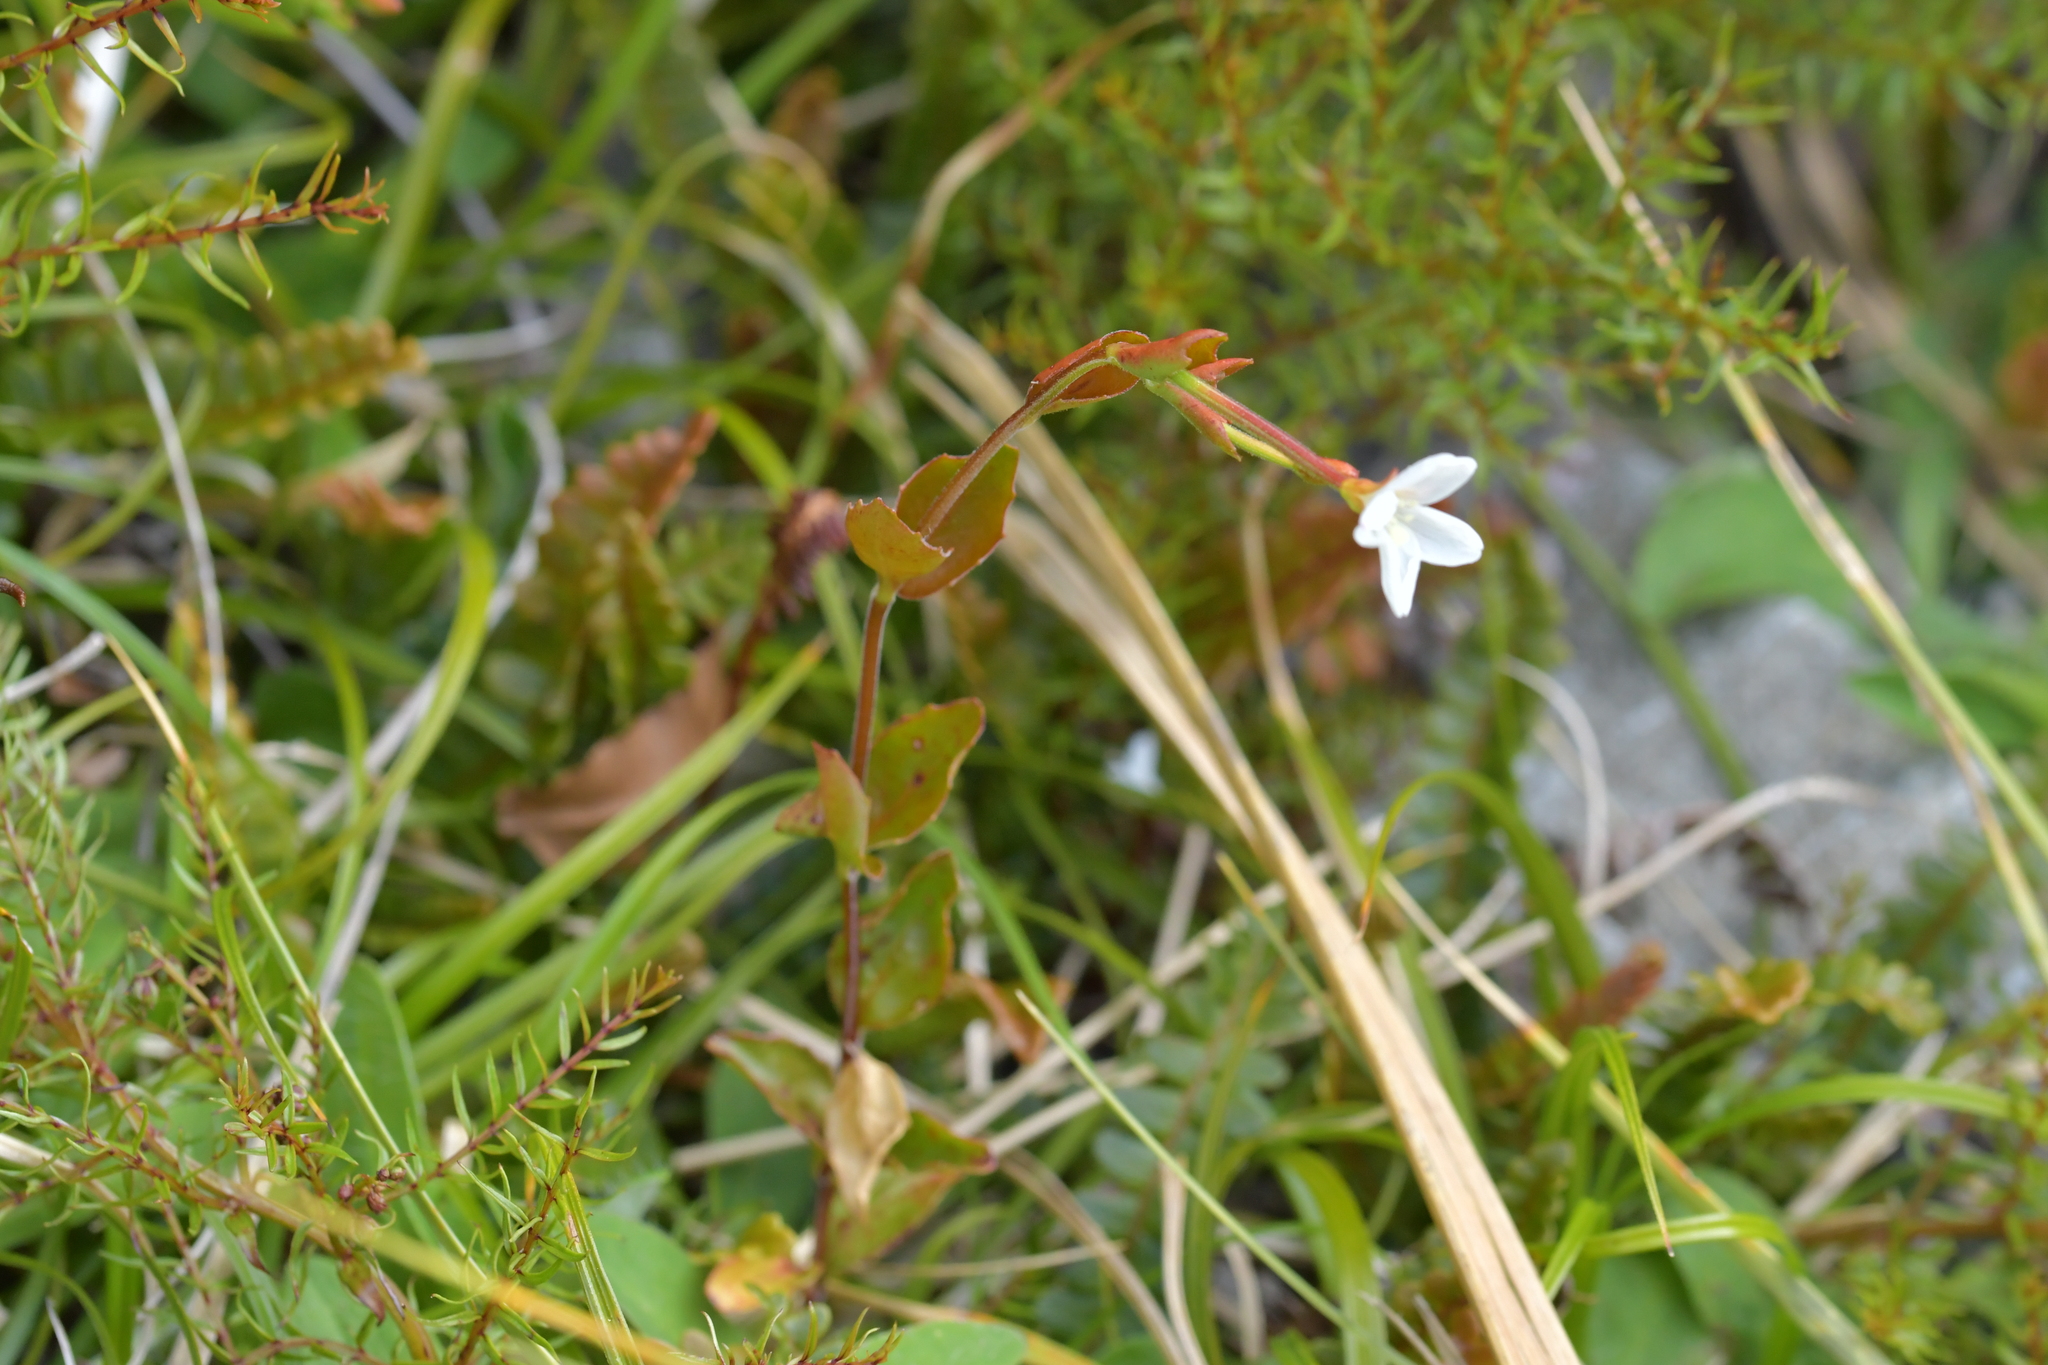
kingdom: Plantae
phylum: Tracheophyta
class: Magnoliopsida
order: Myrtales
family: Onagraceae
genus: Epilobium
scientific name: Epilobium chlorifolium
